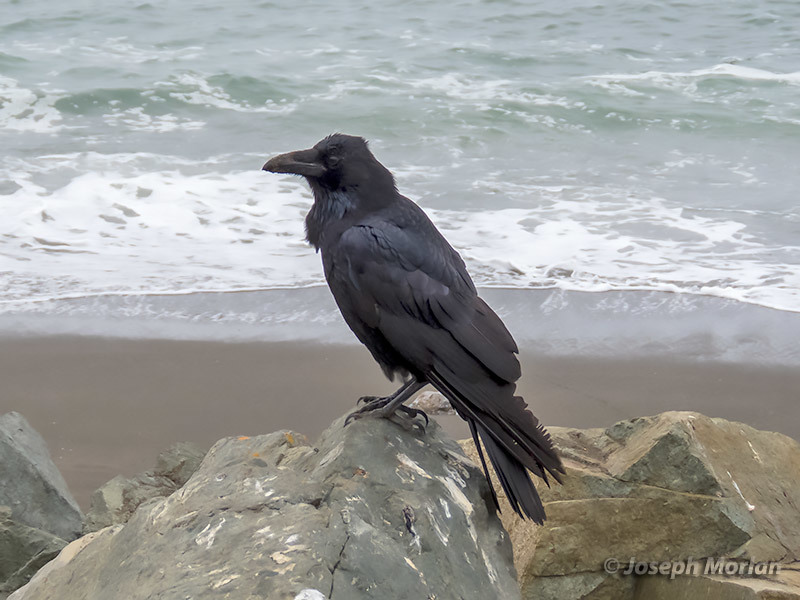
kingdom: Animalia
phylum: Chordata
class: Aves
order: Passeriformes
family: Corvidae
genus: Corvus
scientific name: Corvus corax
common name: Common raven
